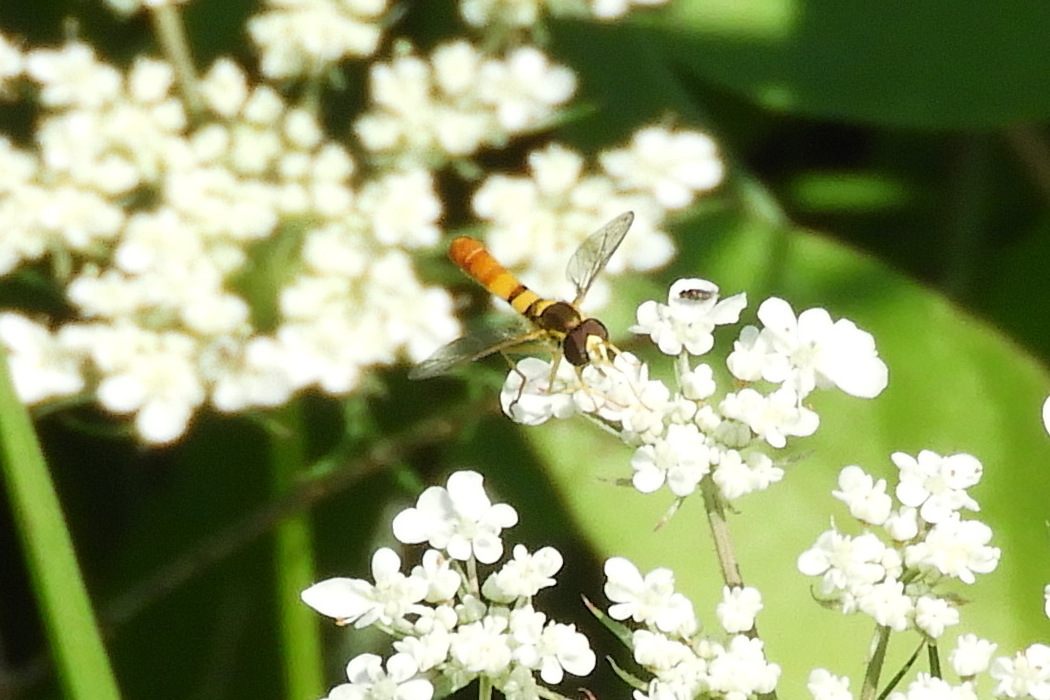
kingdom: Animalia
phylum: Arthropoda
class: Insecta
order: Diptera
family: Syrphidae
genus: Sphaerophoria
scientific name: Sphaerophoria contigua
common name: Tufted globetail
